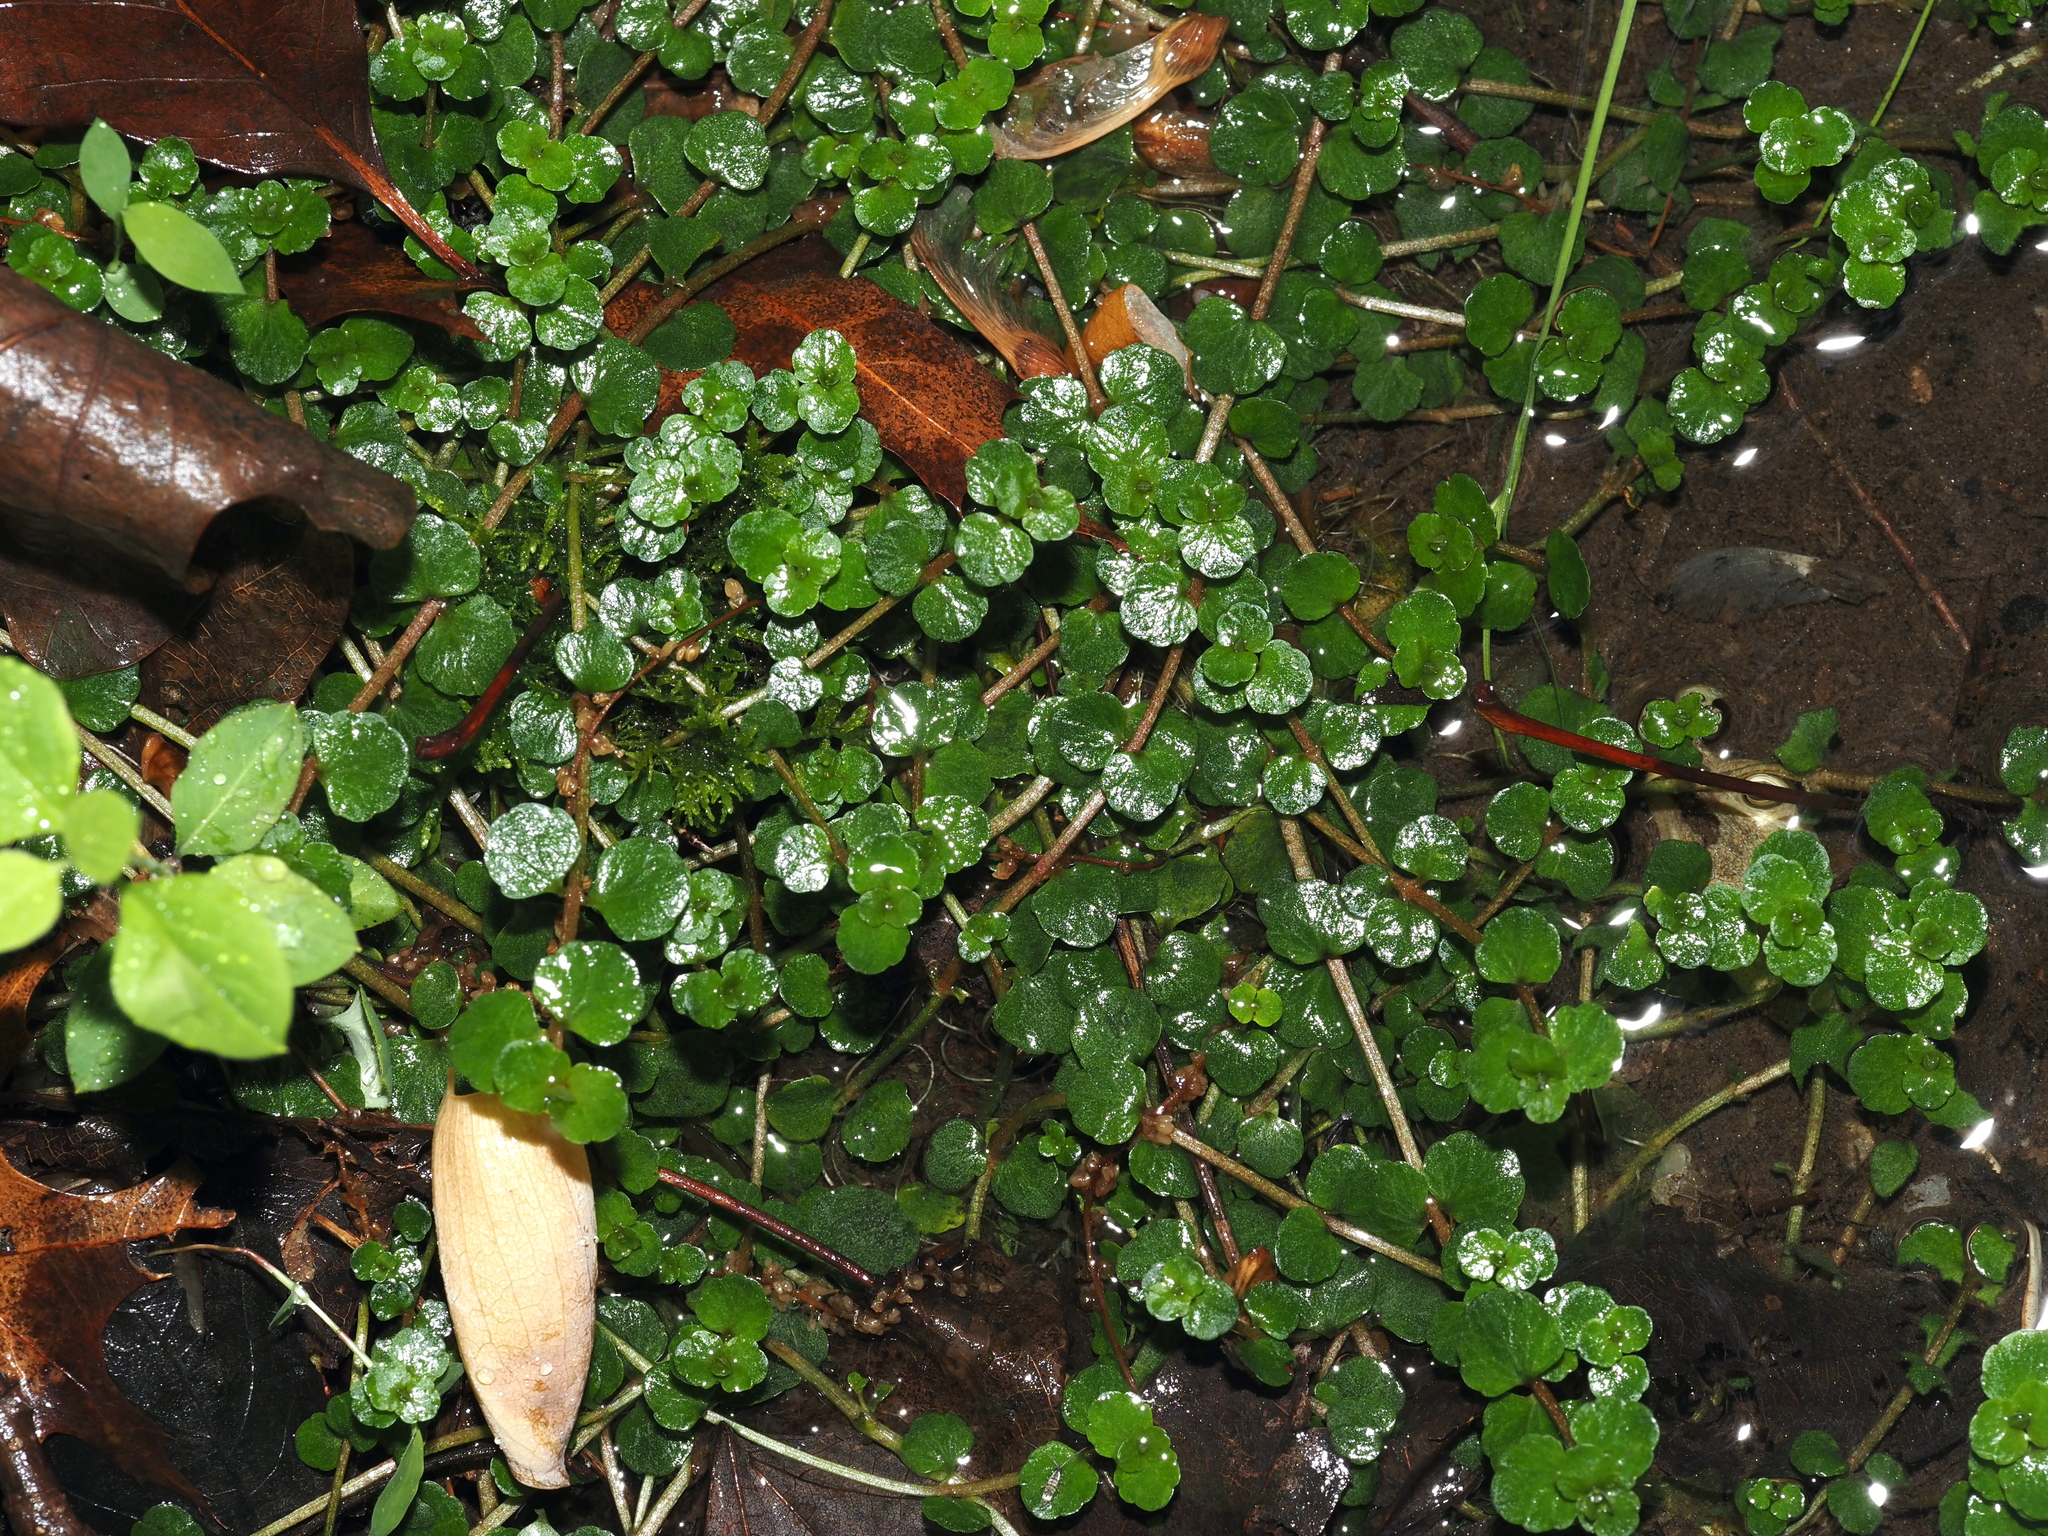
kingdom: Plantae
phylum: Tracheophyta
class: Magnoliopsida
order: Saxifragales
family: Saxifragaceae
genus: Chrysosplenium
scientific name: Chrysosplenium americanum
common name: American golden-saxifrage
